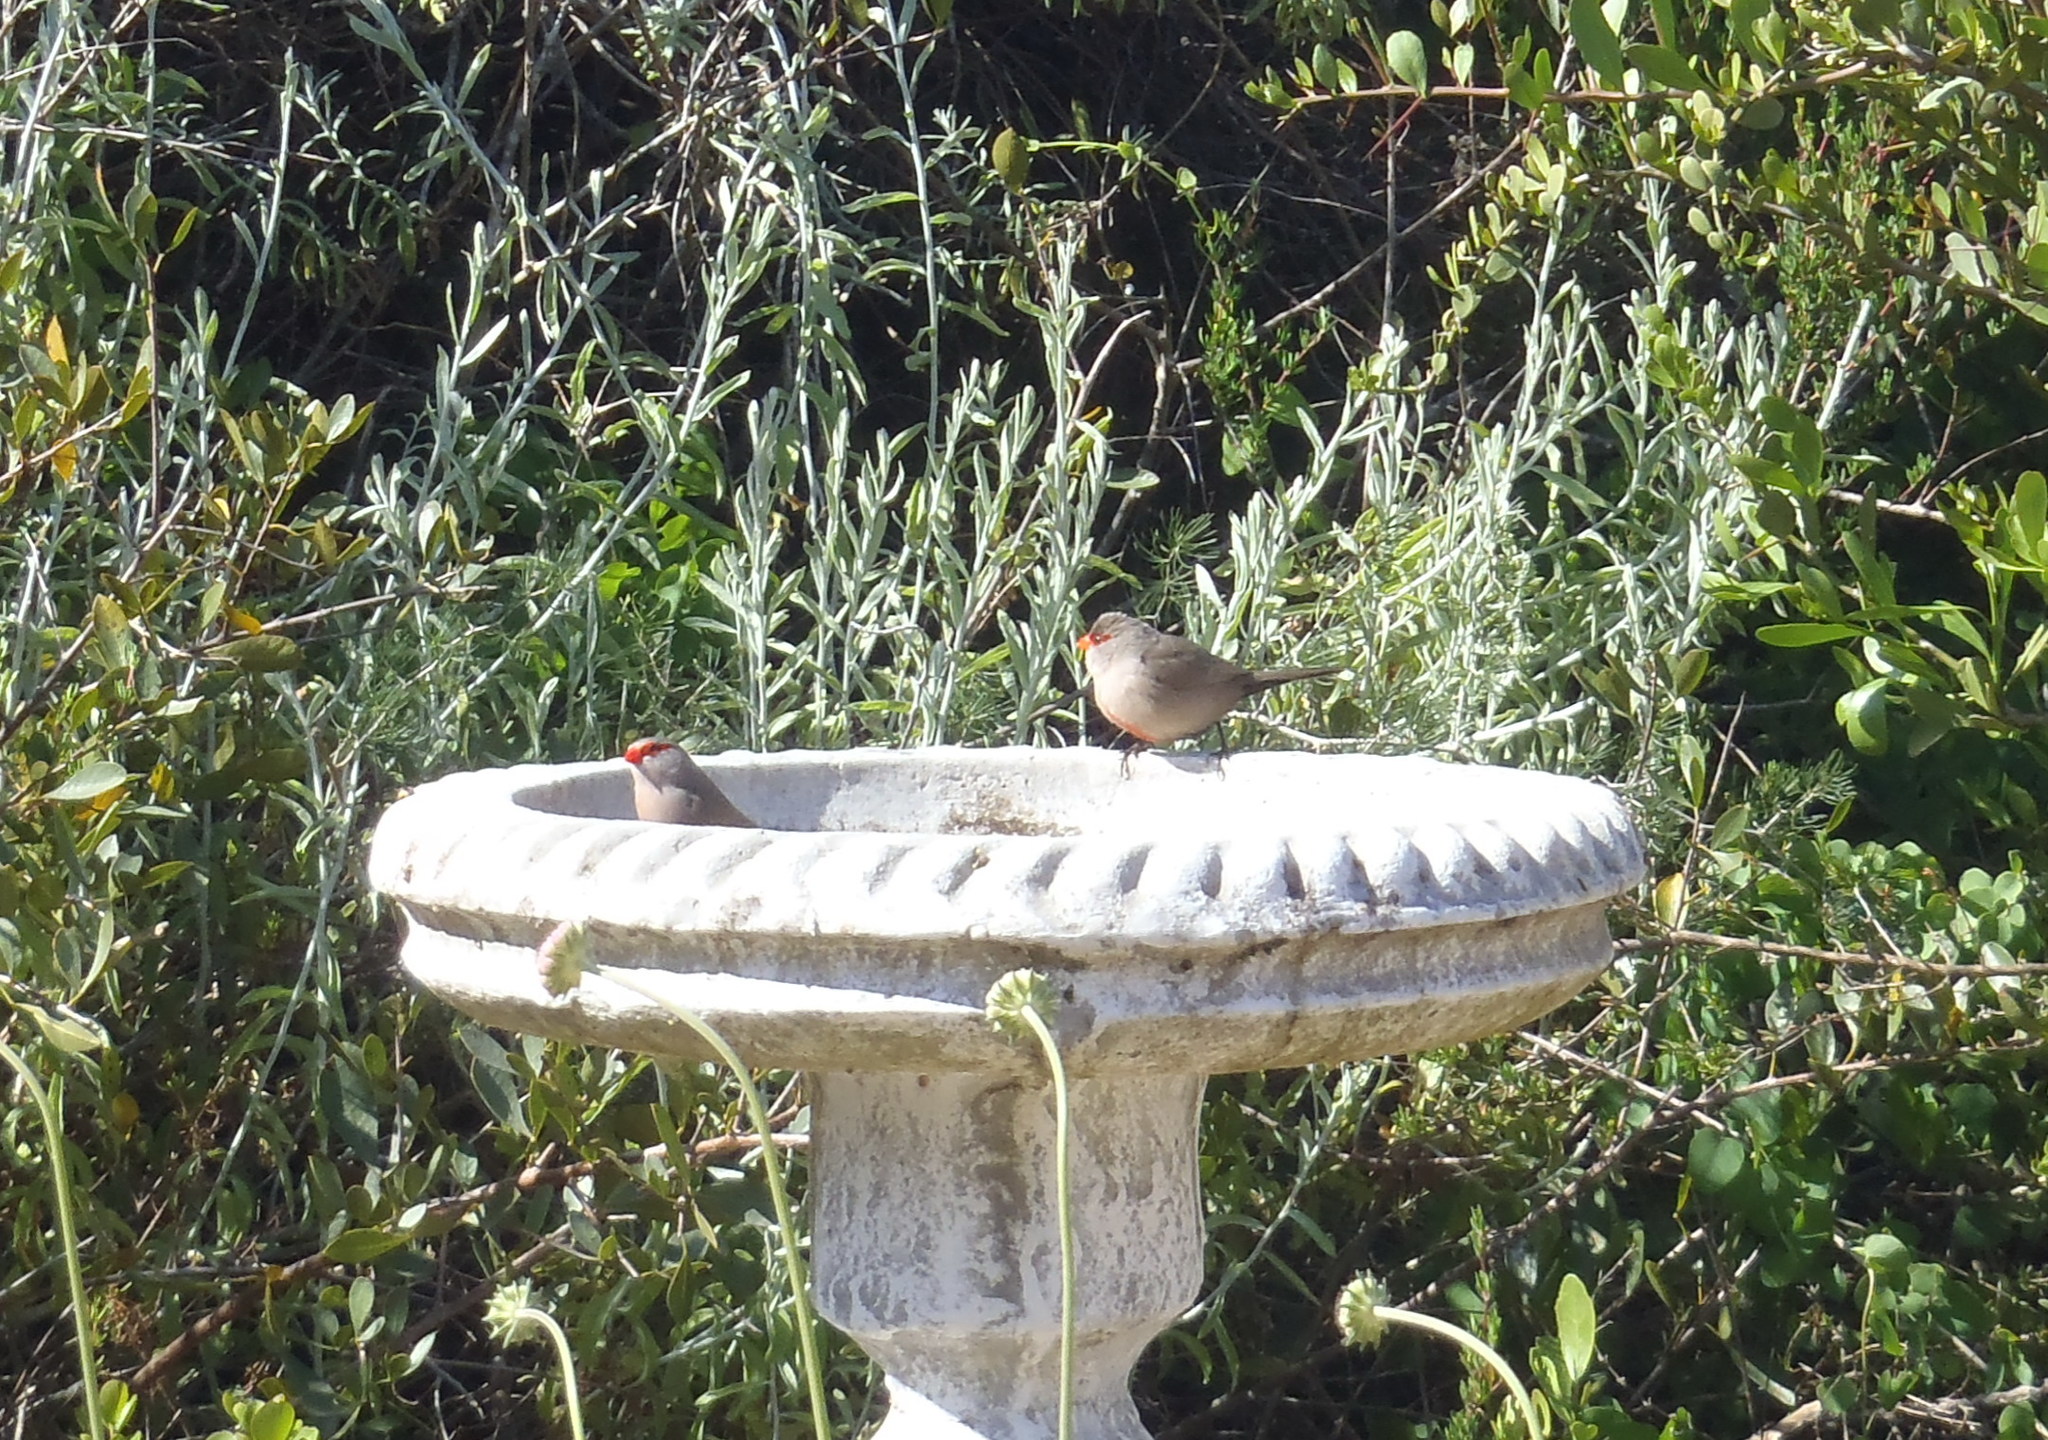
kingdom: Animalia
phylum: Chordata
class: Aves
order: Passeriformes
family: Estrildidae
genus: Estrilda
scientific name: Estrilda astrild
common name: Common waxbill
